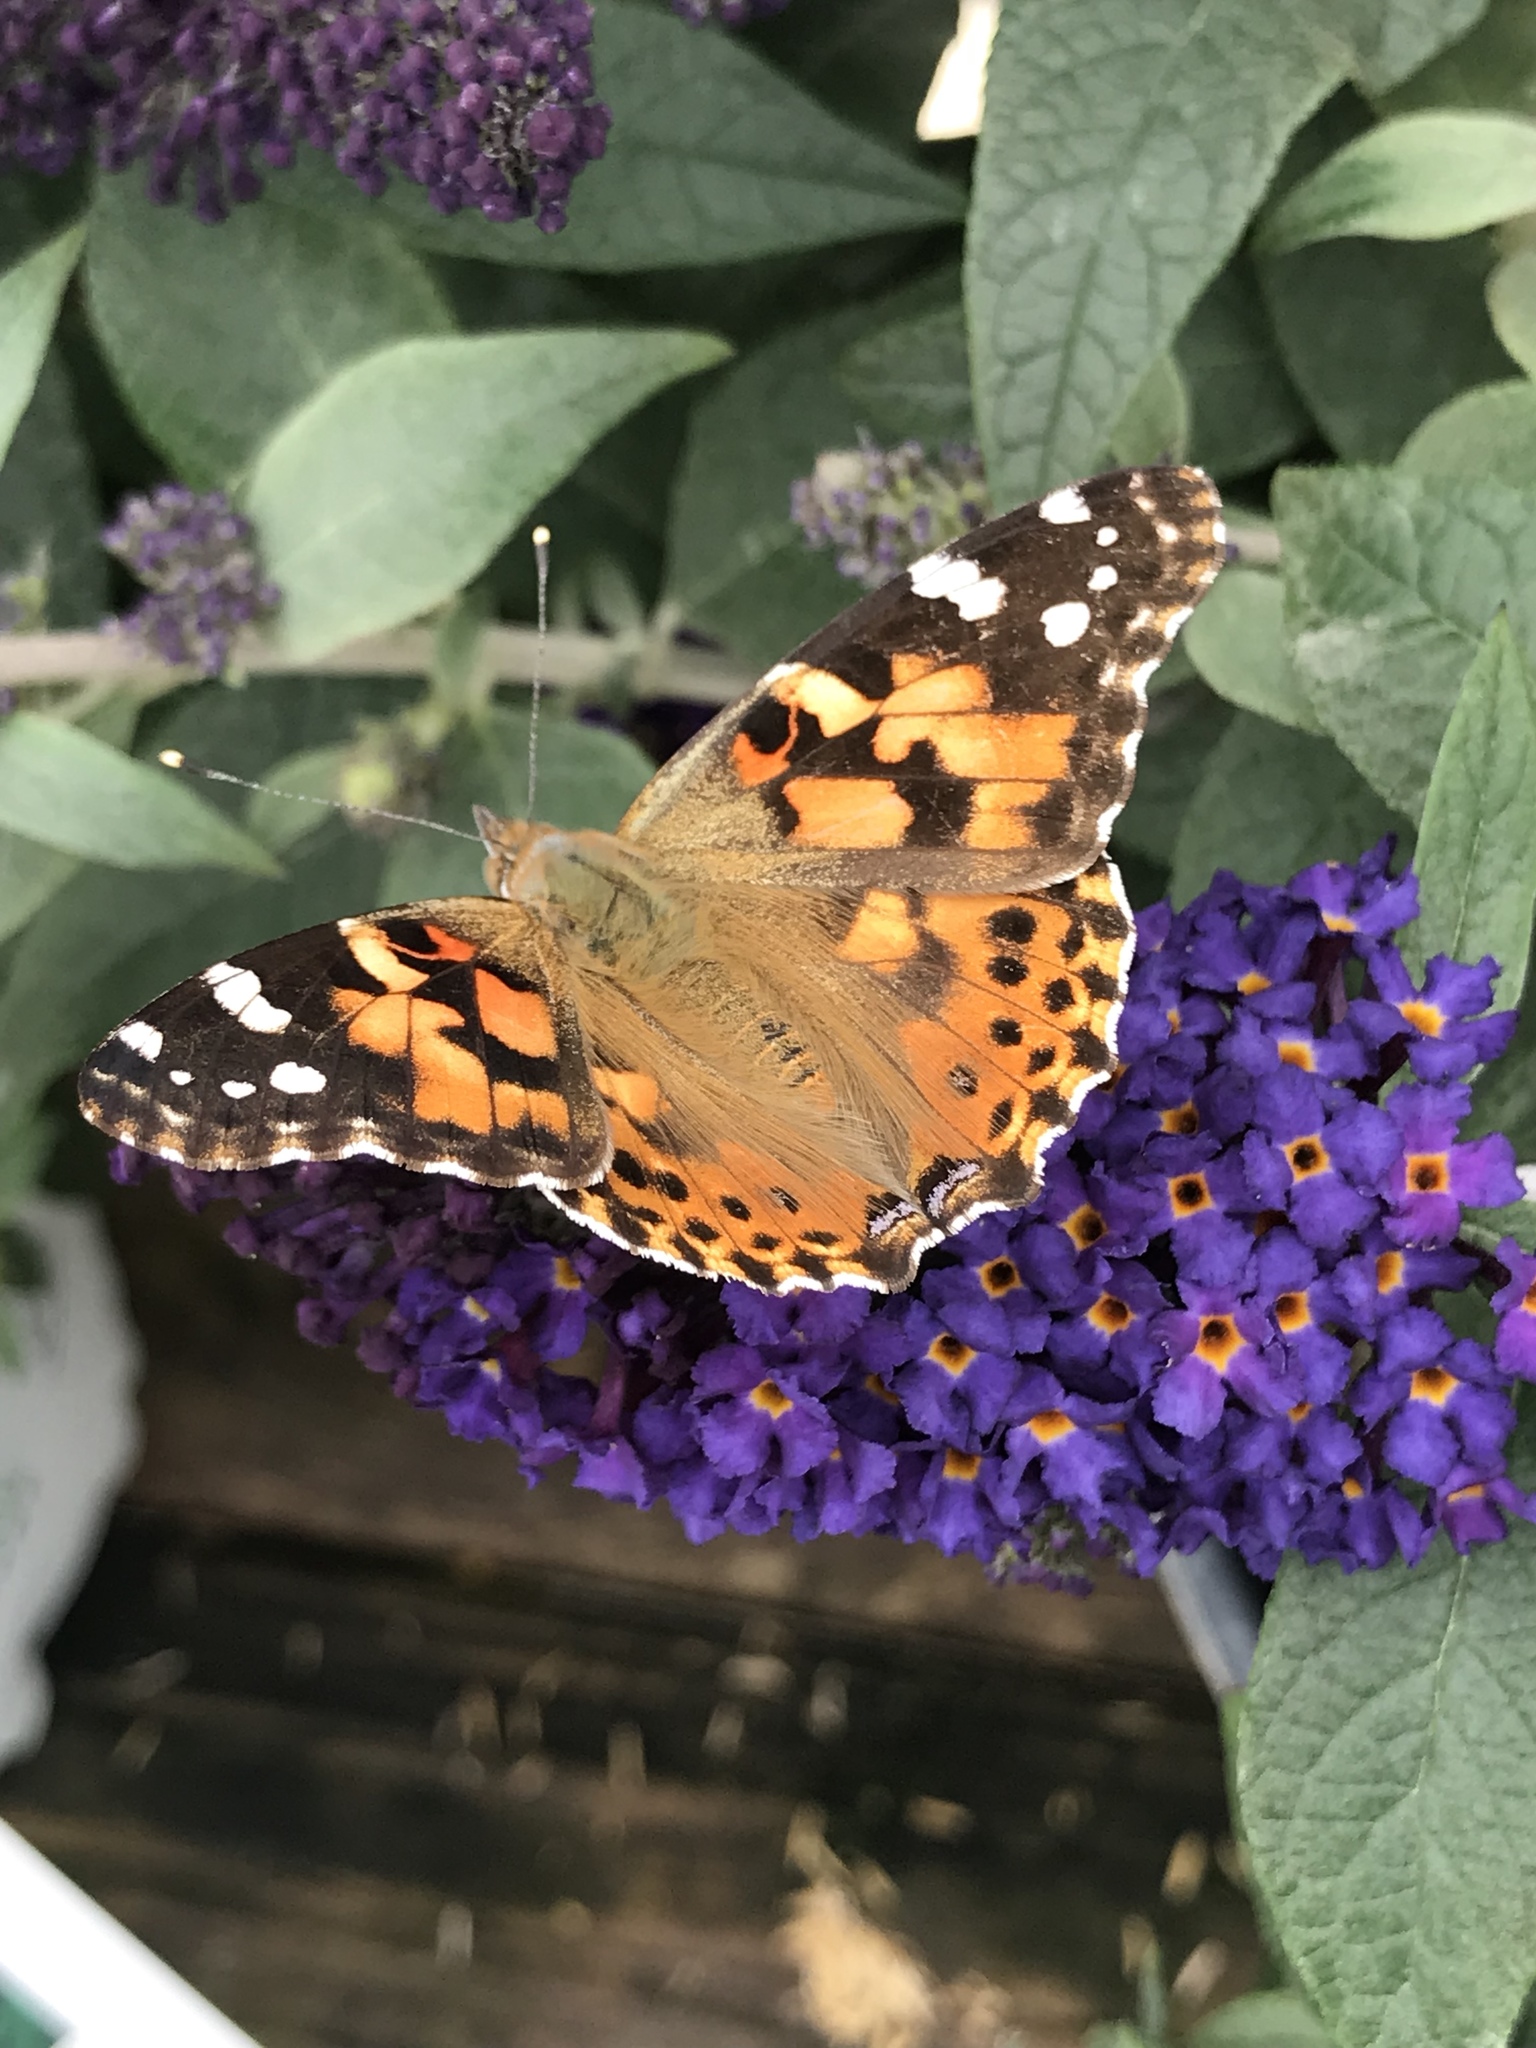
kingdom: Animalia
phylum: Arthropoda
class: Insecta
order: Lepidoptera
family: Nymphalidae
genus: Vanessa
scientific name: Vanessa cardui
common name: Painted lady
